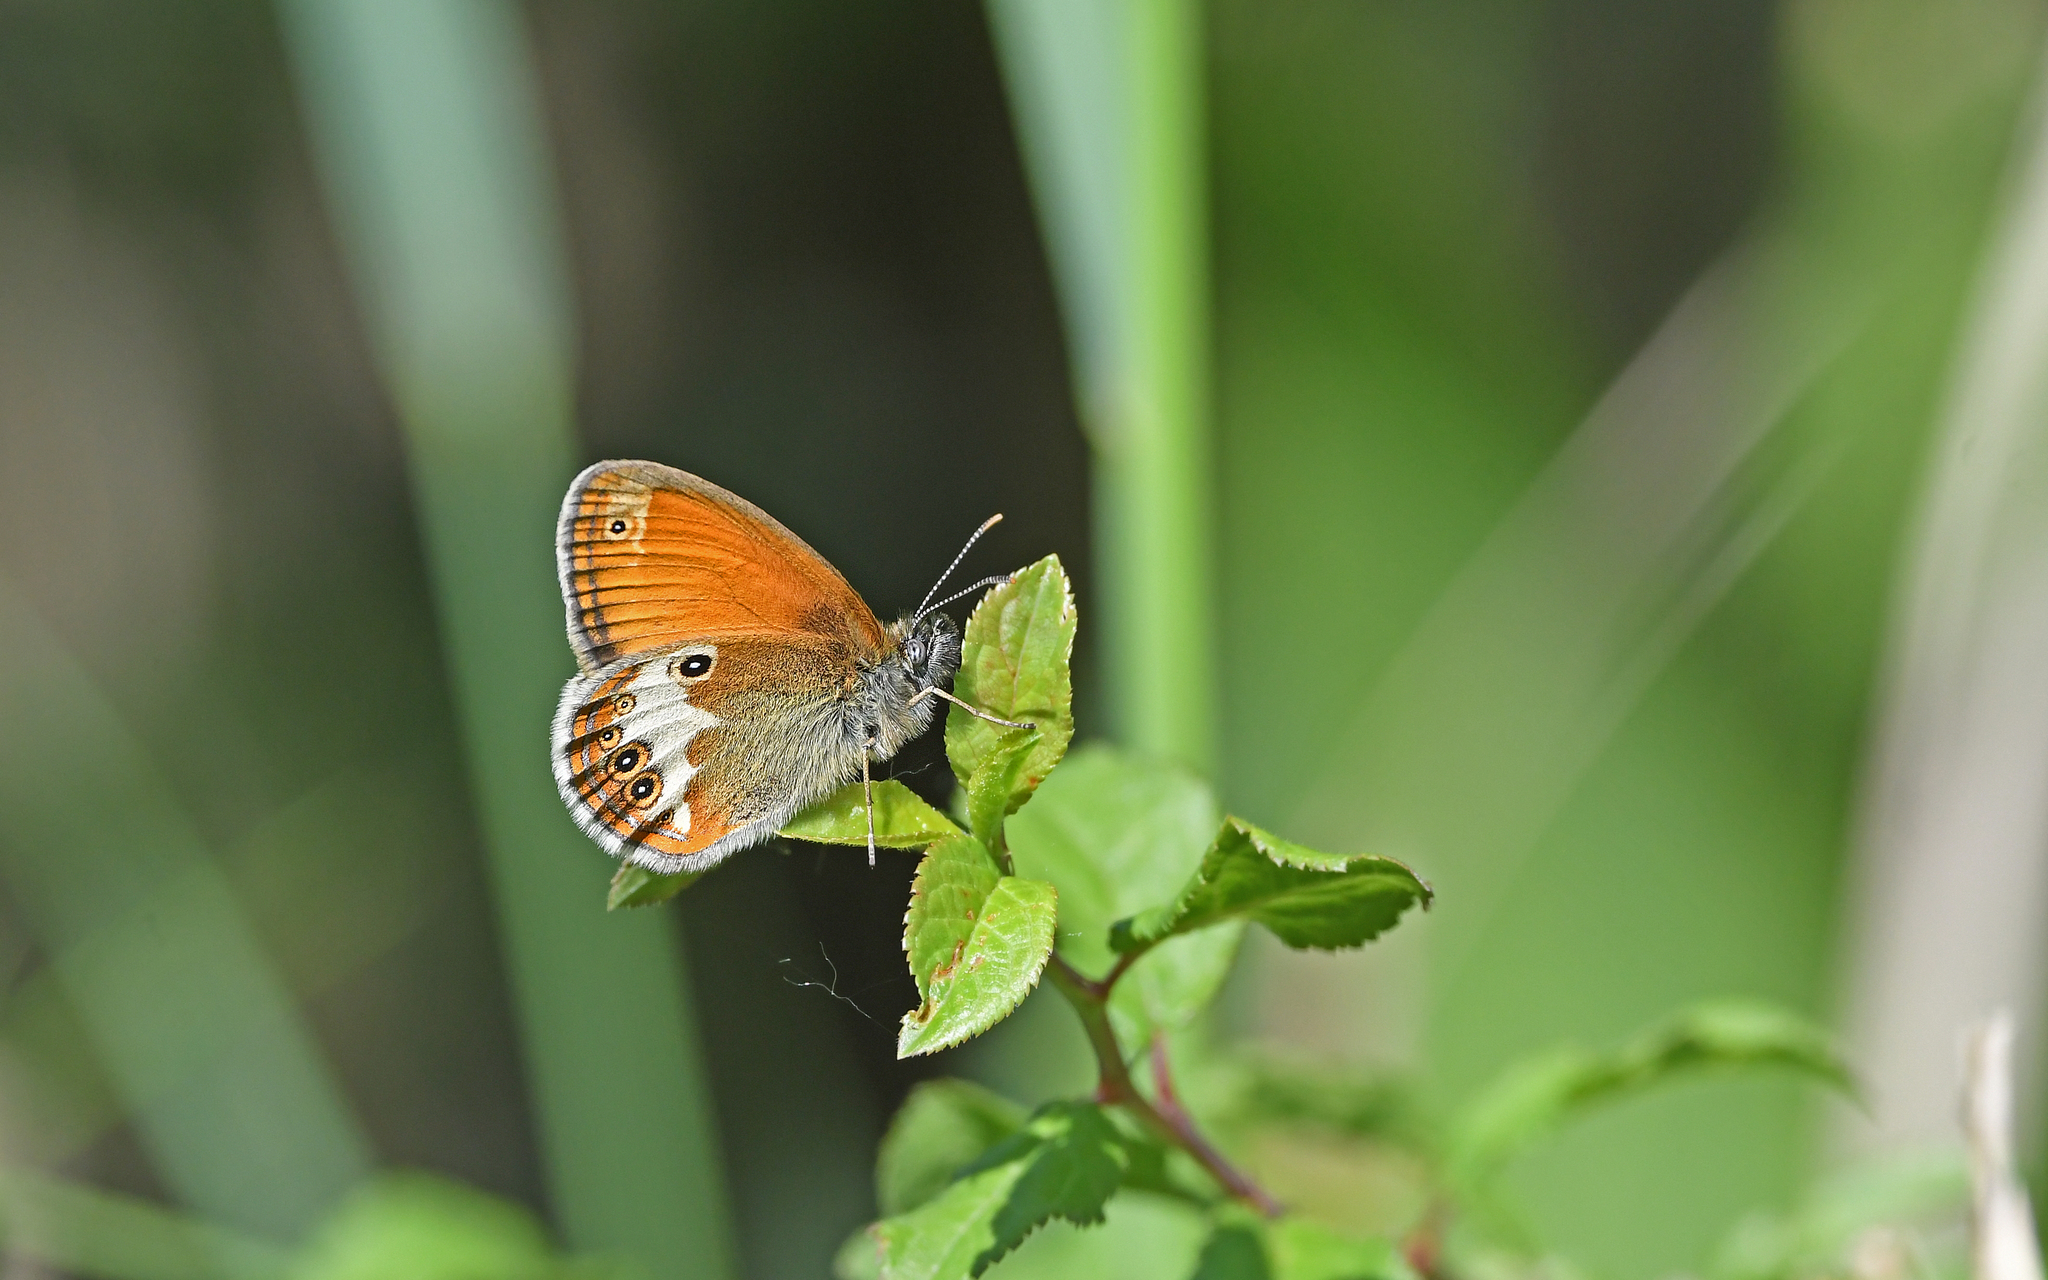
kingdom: Animalia
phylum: Arthropoda
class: Insecta
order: Lepidoptera
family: Nymphalidae
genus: Coenonympha
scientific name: Coenonympha arcania
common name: Pearly heath
